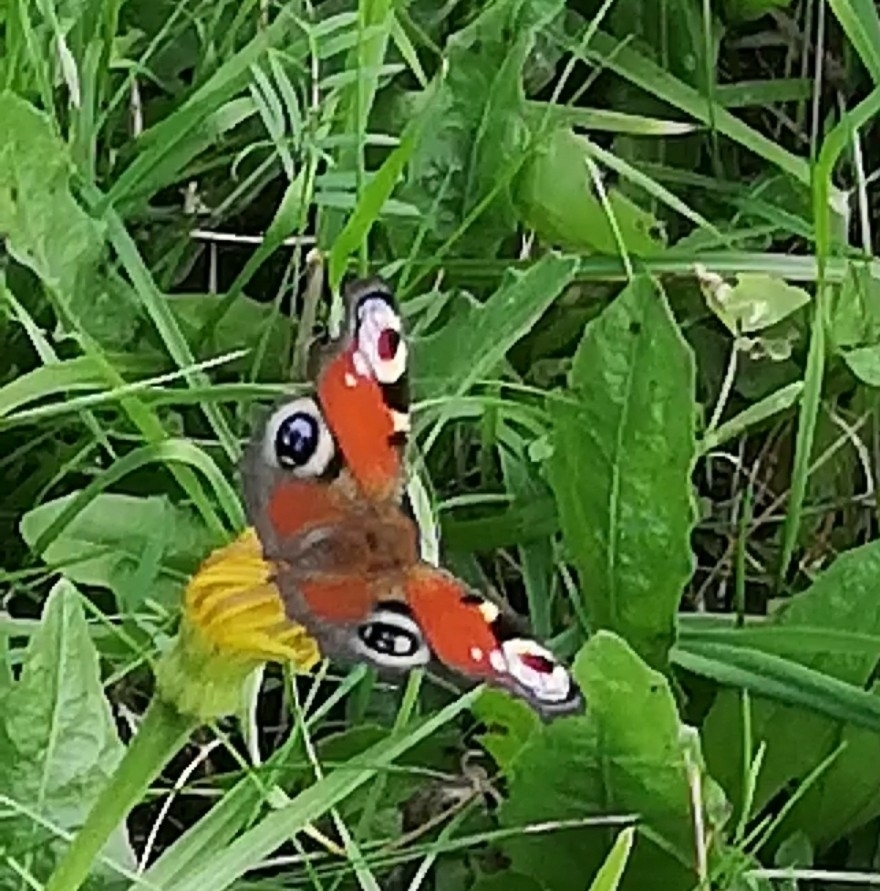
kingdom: Animalia
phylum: Arthropoda
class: Insecta
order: Lepidoptera
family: Nymphalidae
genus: Aglais
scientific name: Aglais io
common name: Peacock
